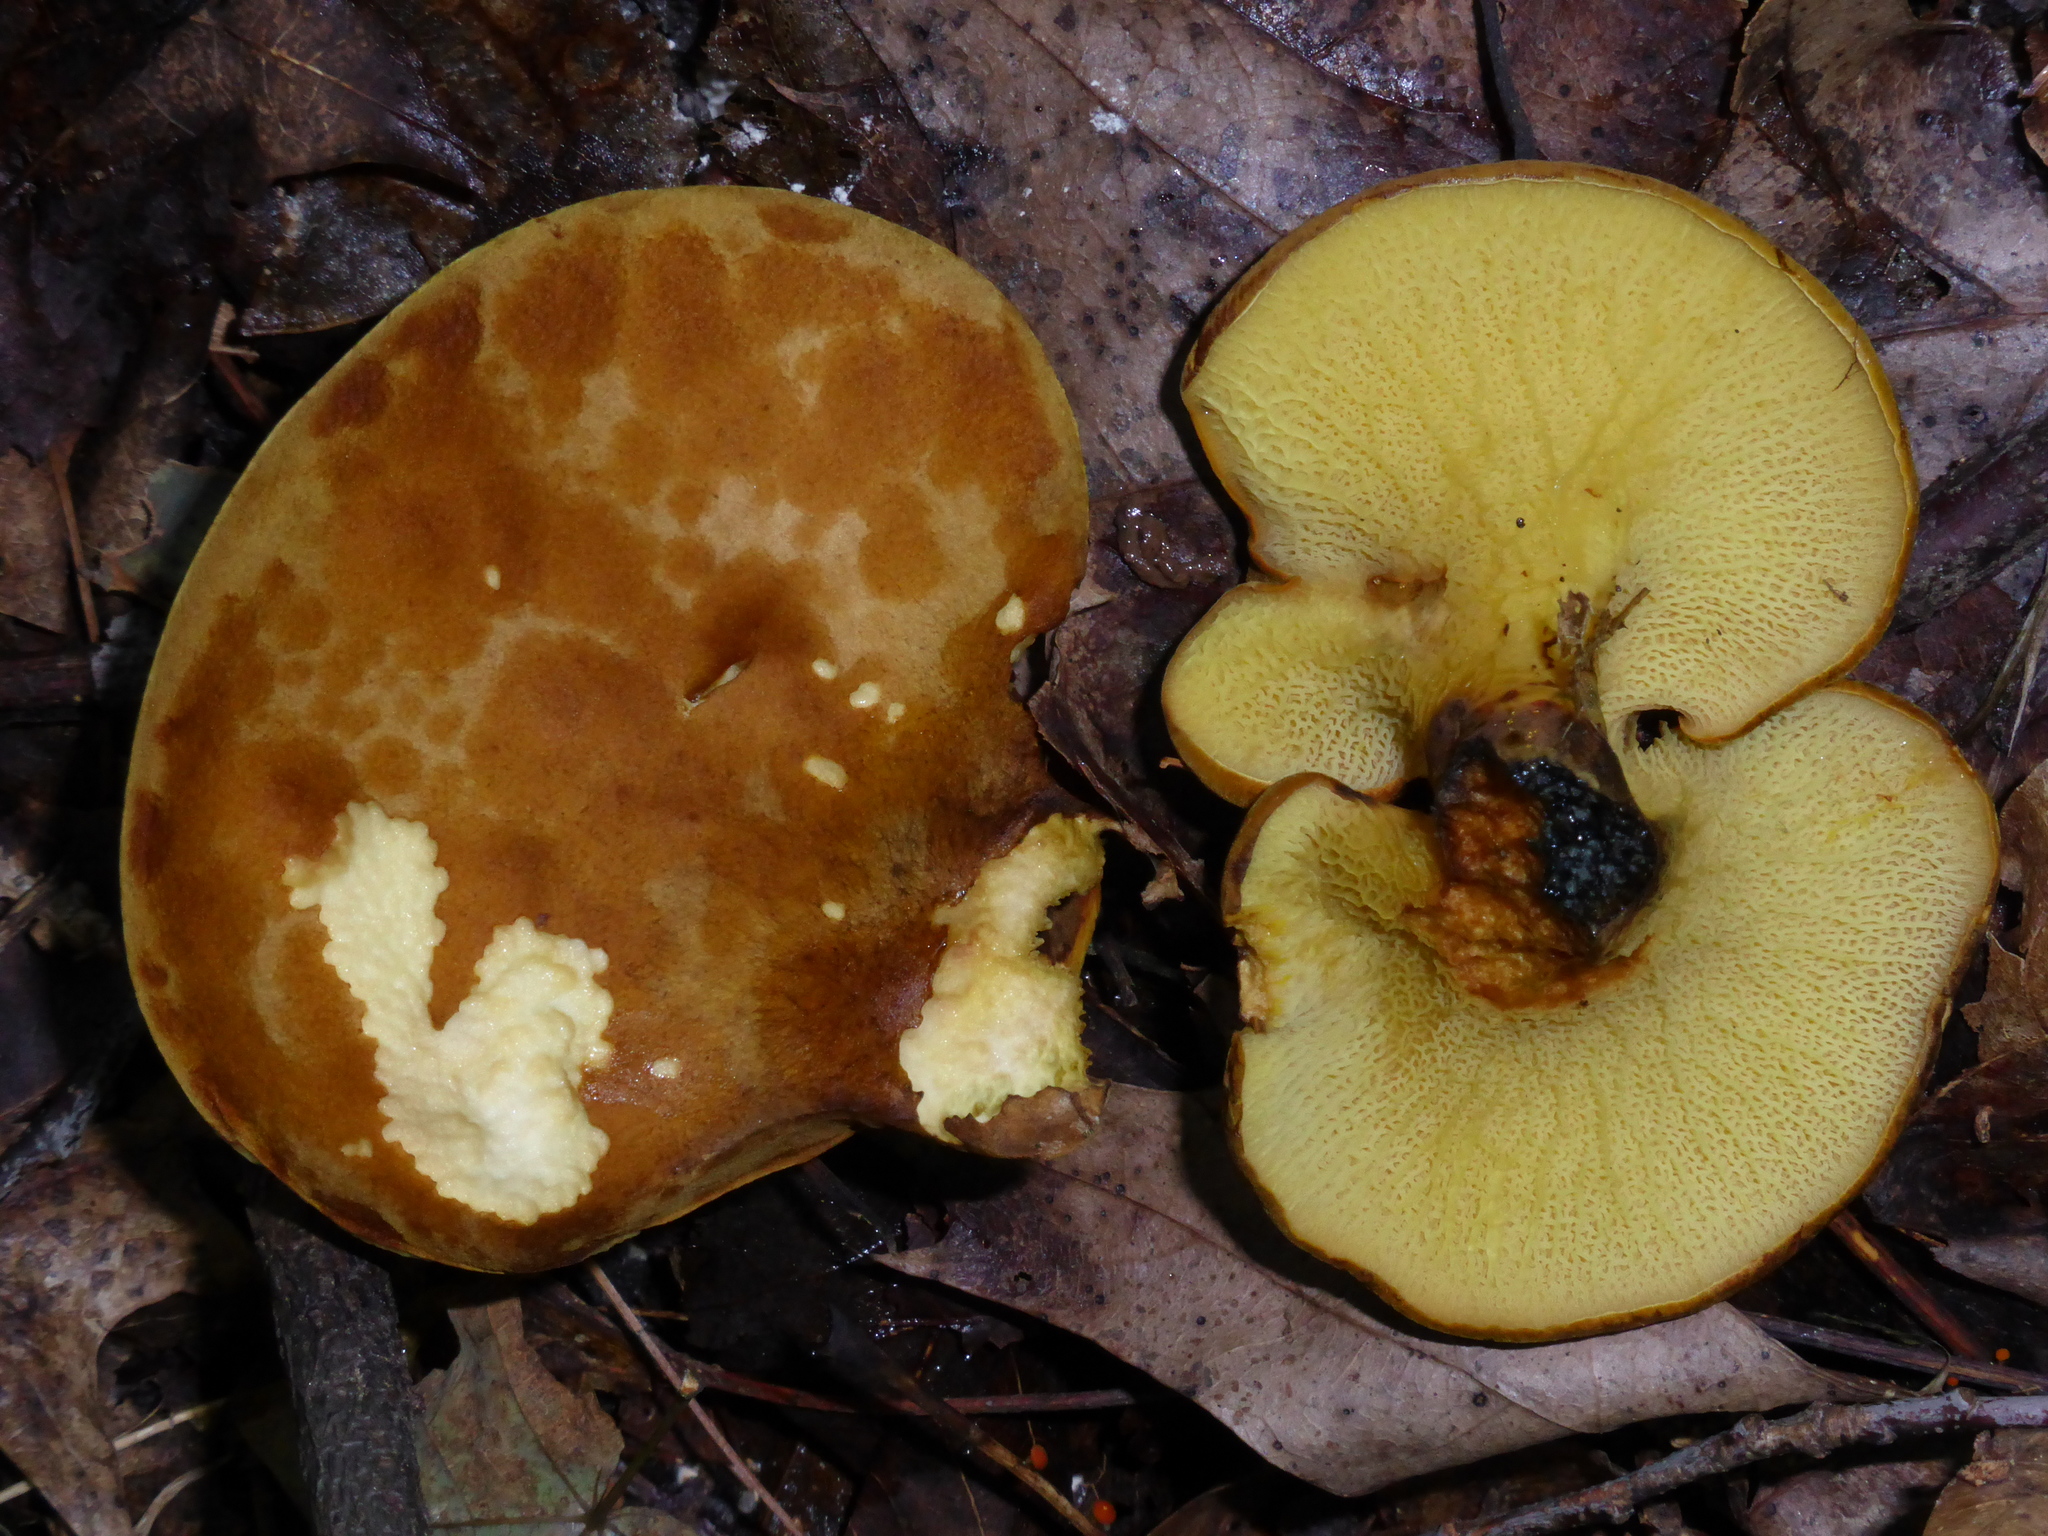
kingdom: Fungi
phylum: Basidiomycota
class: Agaricomycetes
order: Boletales
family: Boletinellaceae
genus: Boletinellus
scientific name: Boletinellus merulioides
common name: Ash tree bolete
